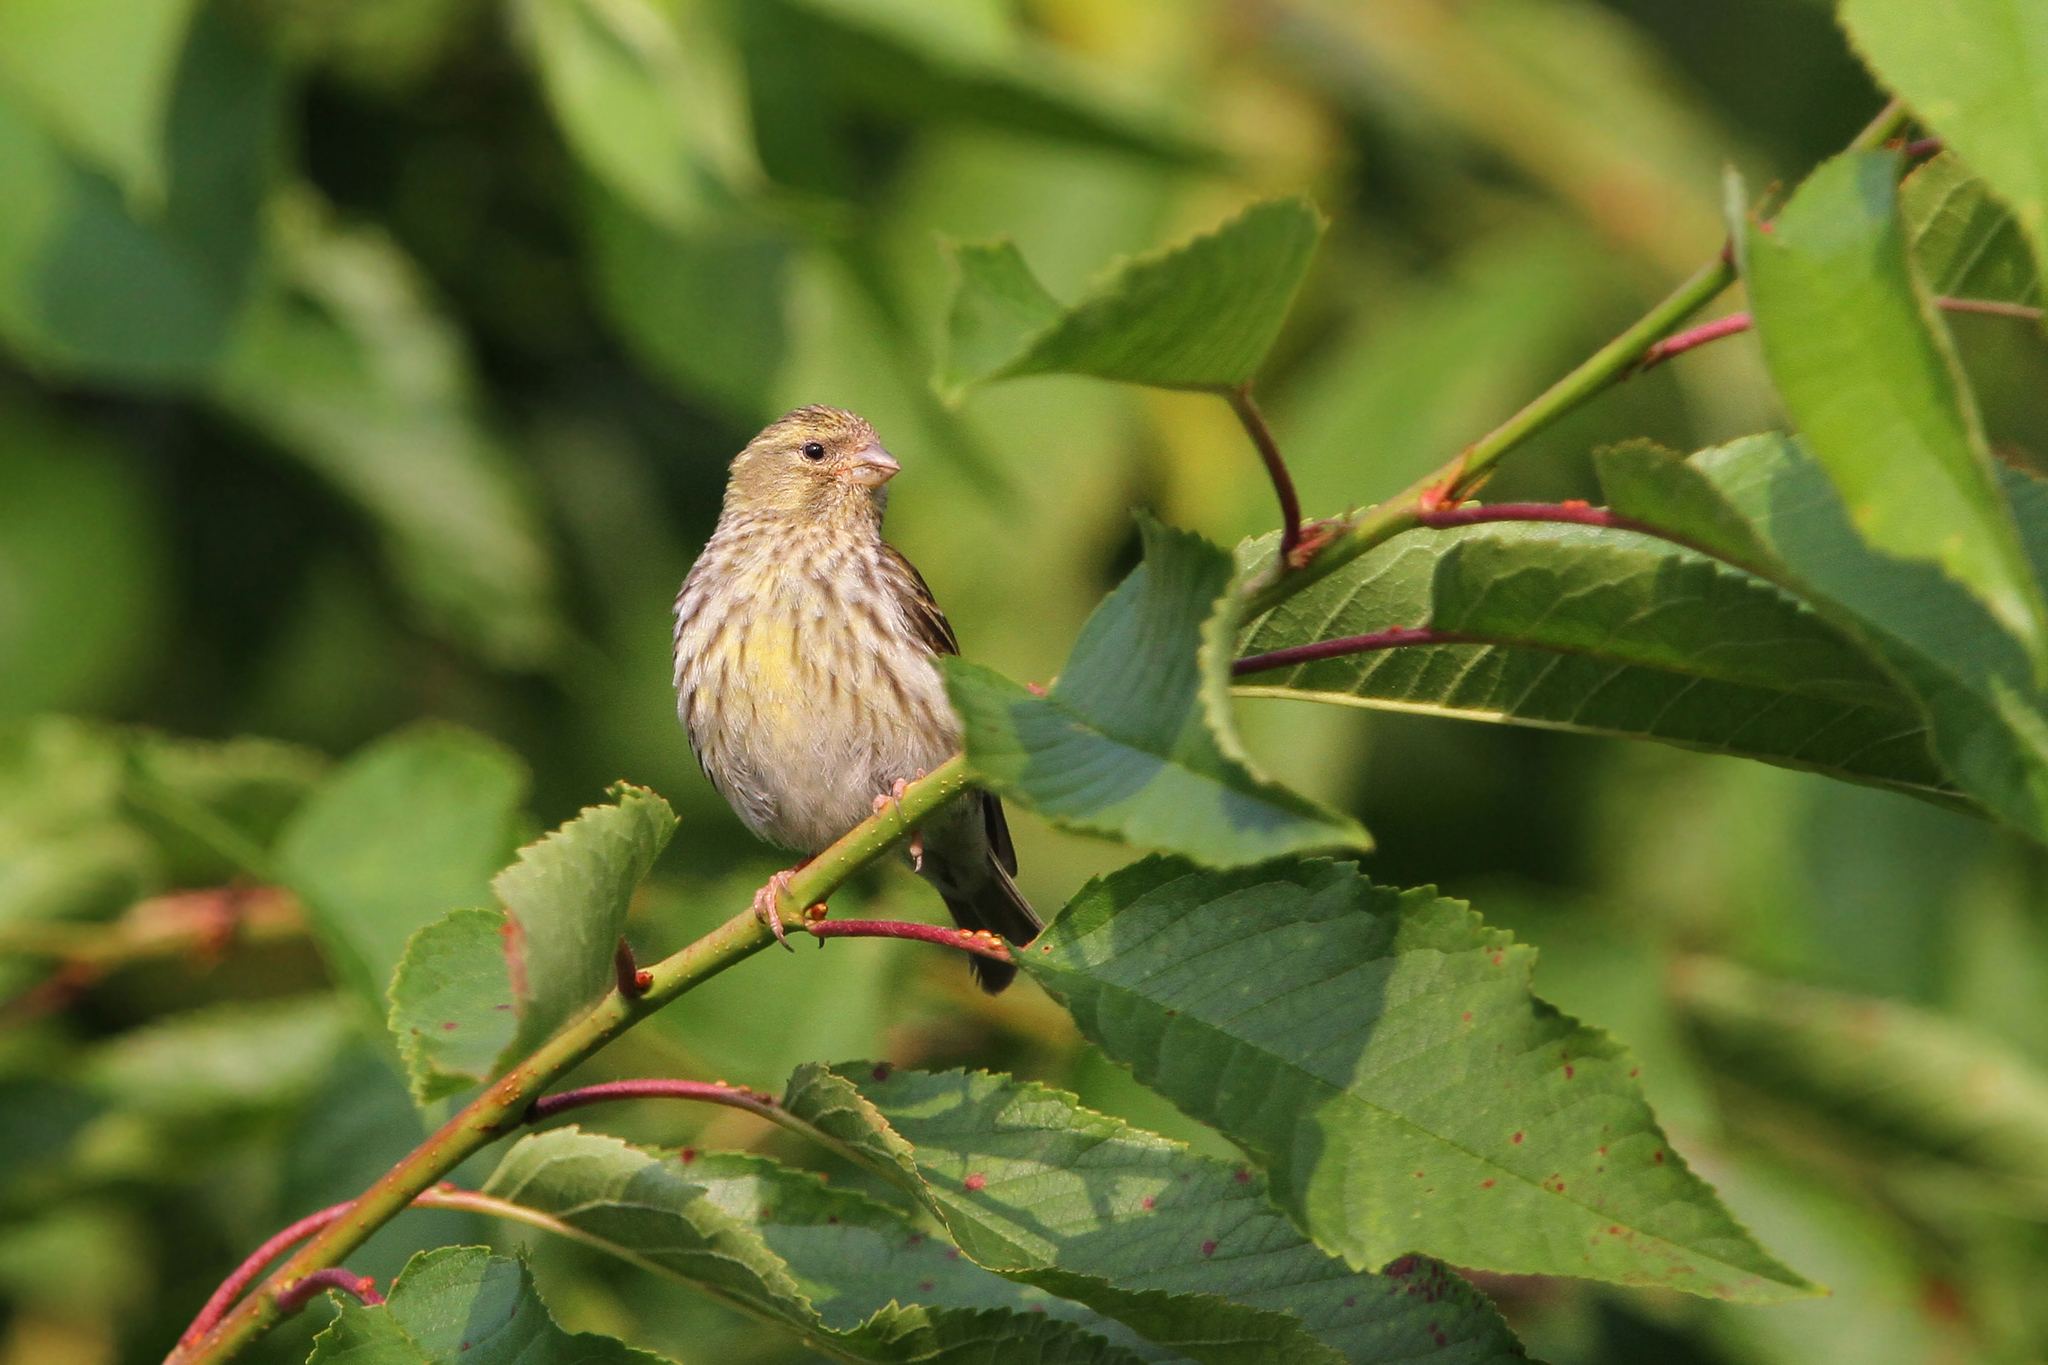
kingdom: Animalia
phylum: Chordata
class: Aves
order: Passeriformes
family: Fringillidae
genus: Serinus
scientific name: Serinus serinus
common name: European serin
